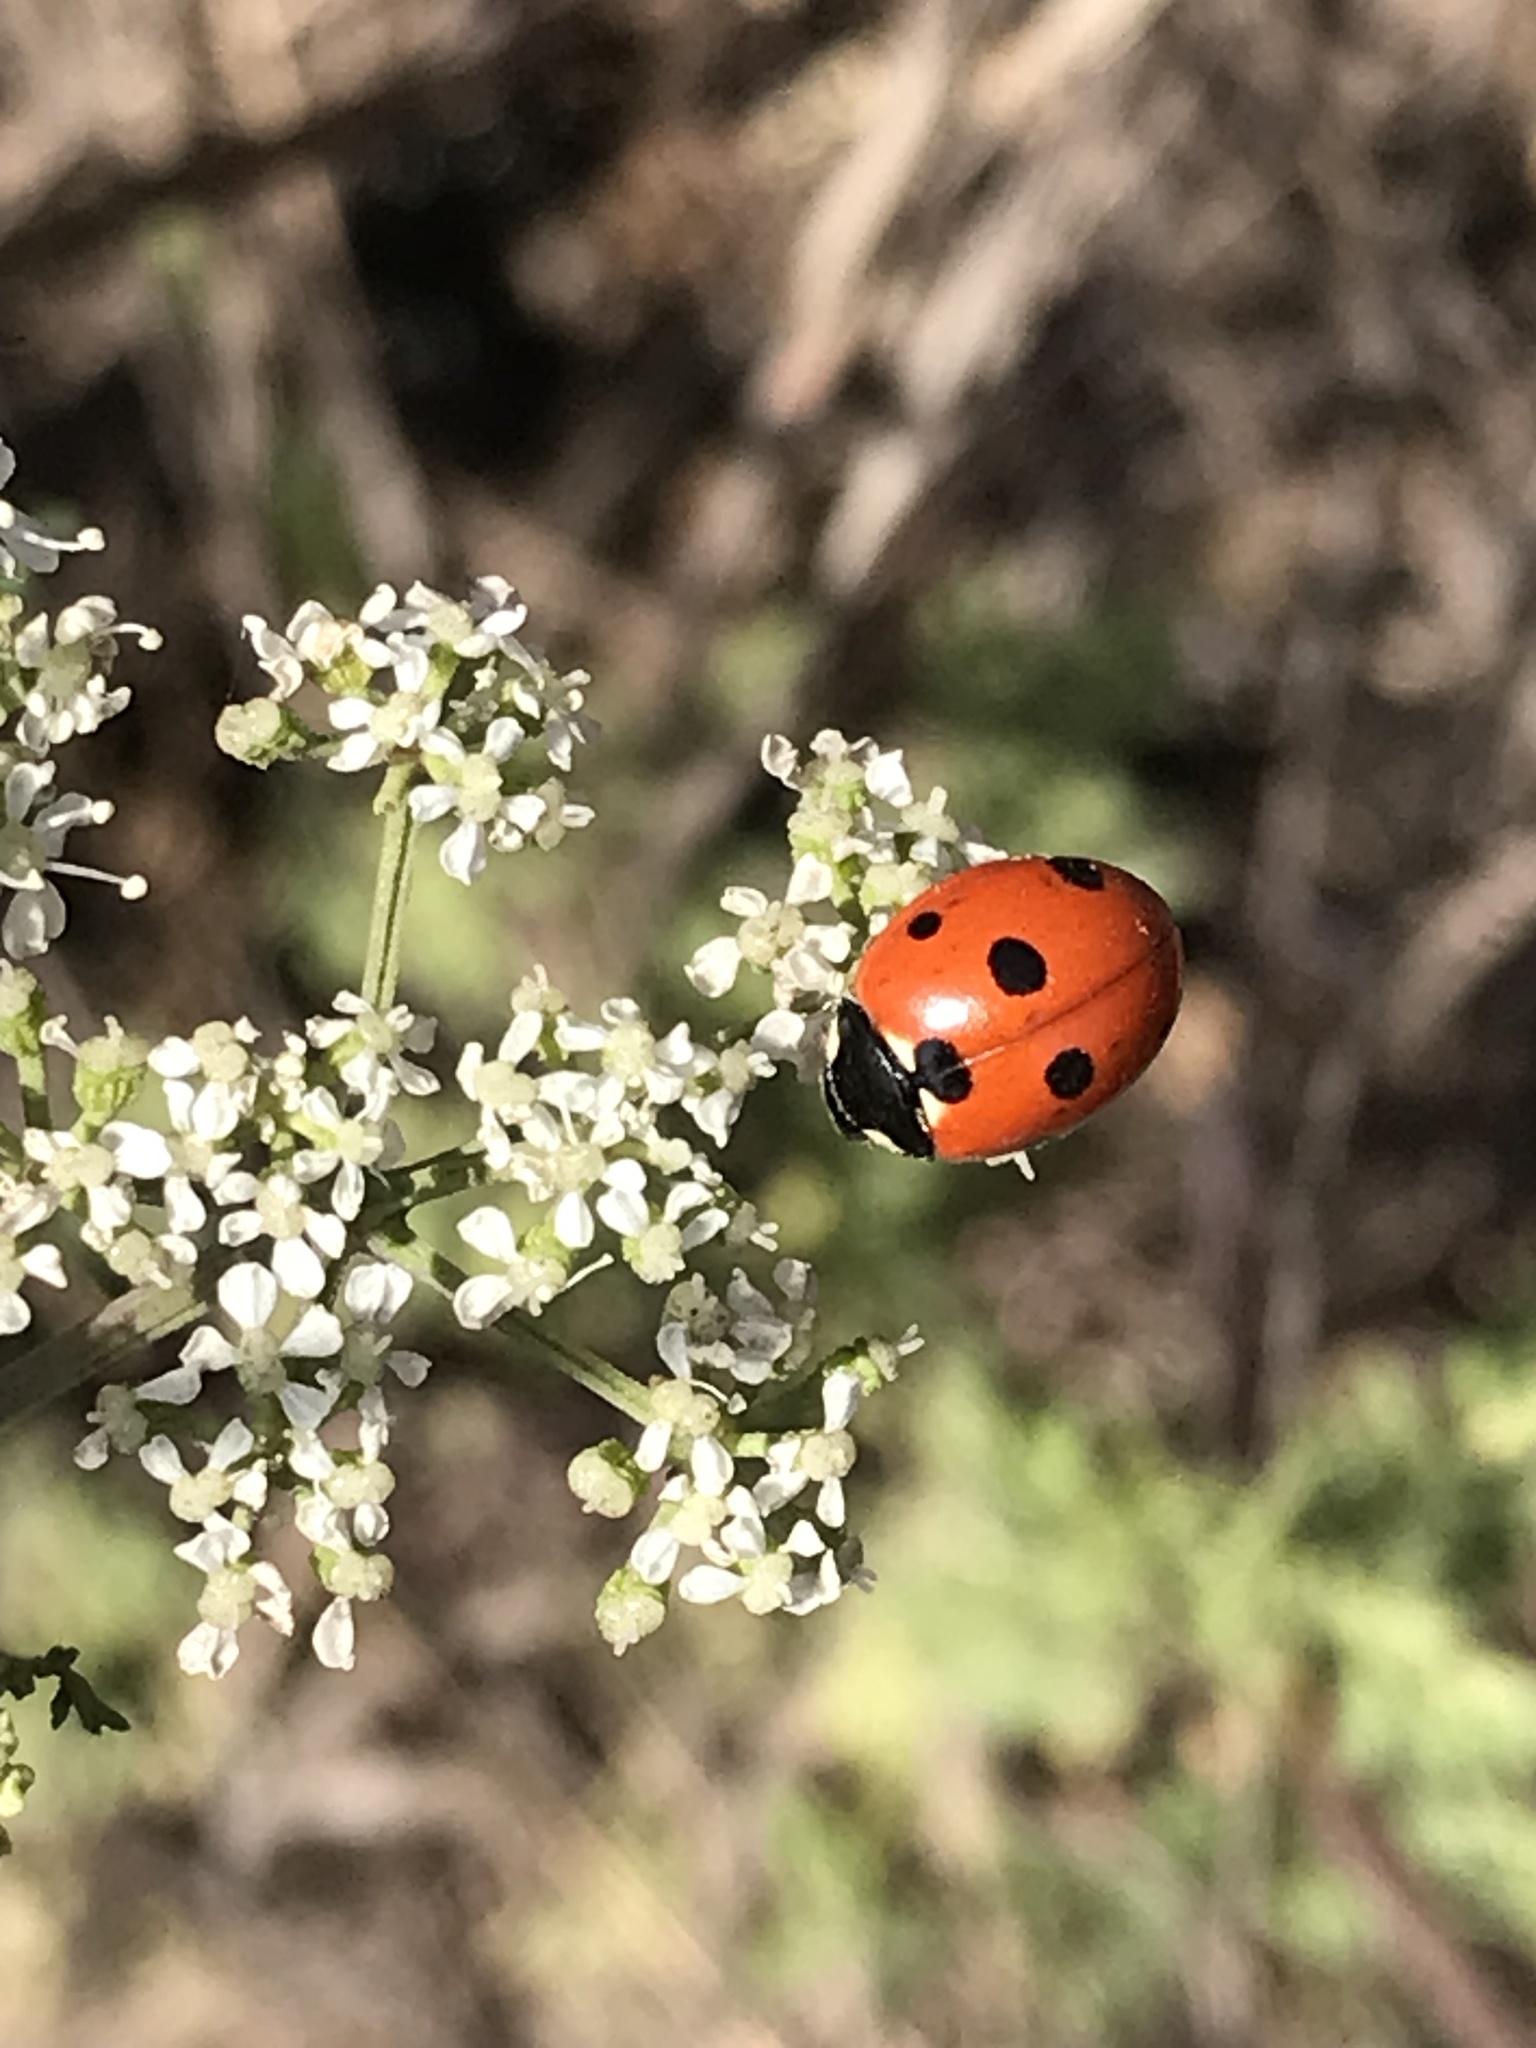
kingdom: Animalia
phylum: Arthropoda
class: Insecta
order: Coleoptera
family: Coccinellidae
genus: Coccinella
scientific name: Coccinella septempunctata
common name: Sevenspotted lady beetle
